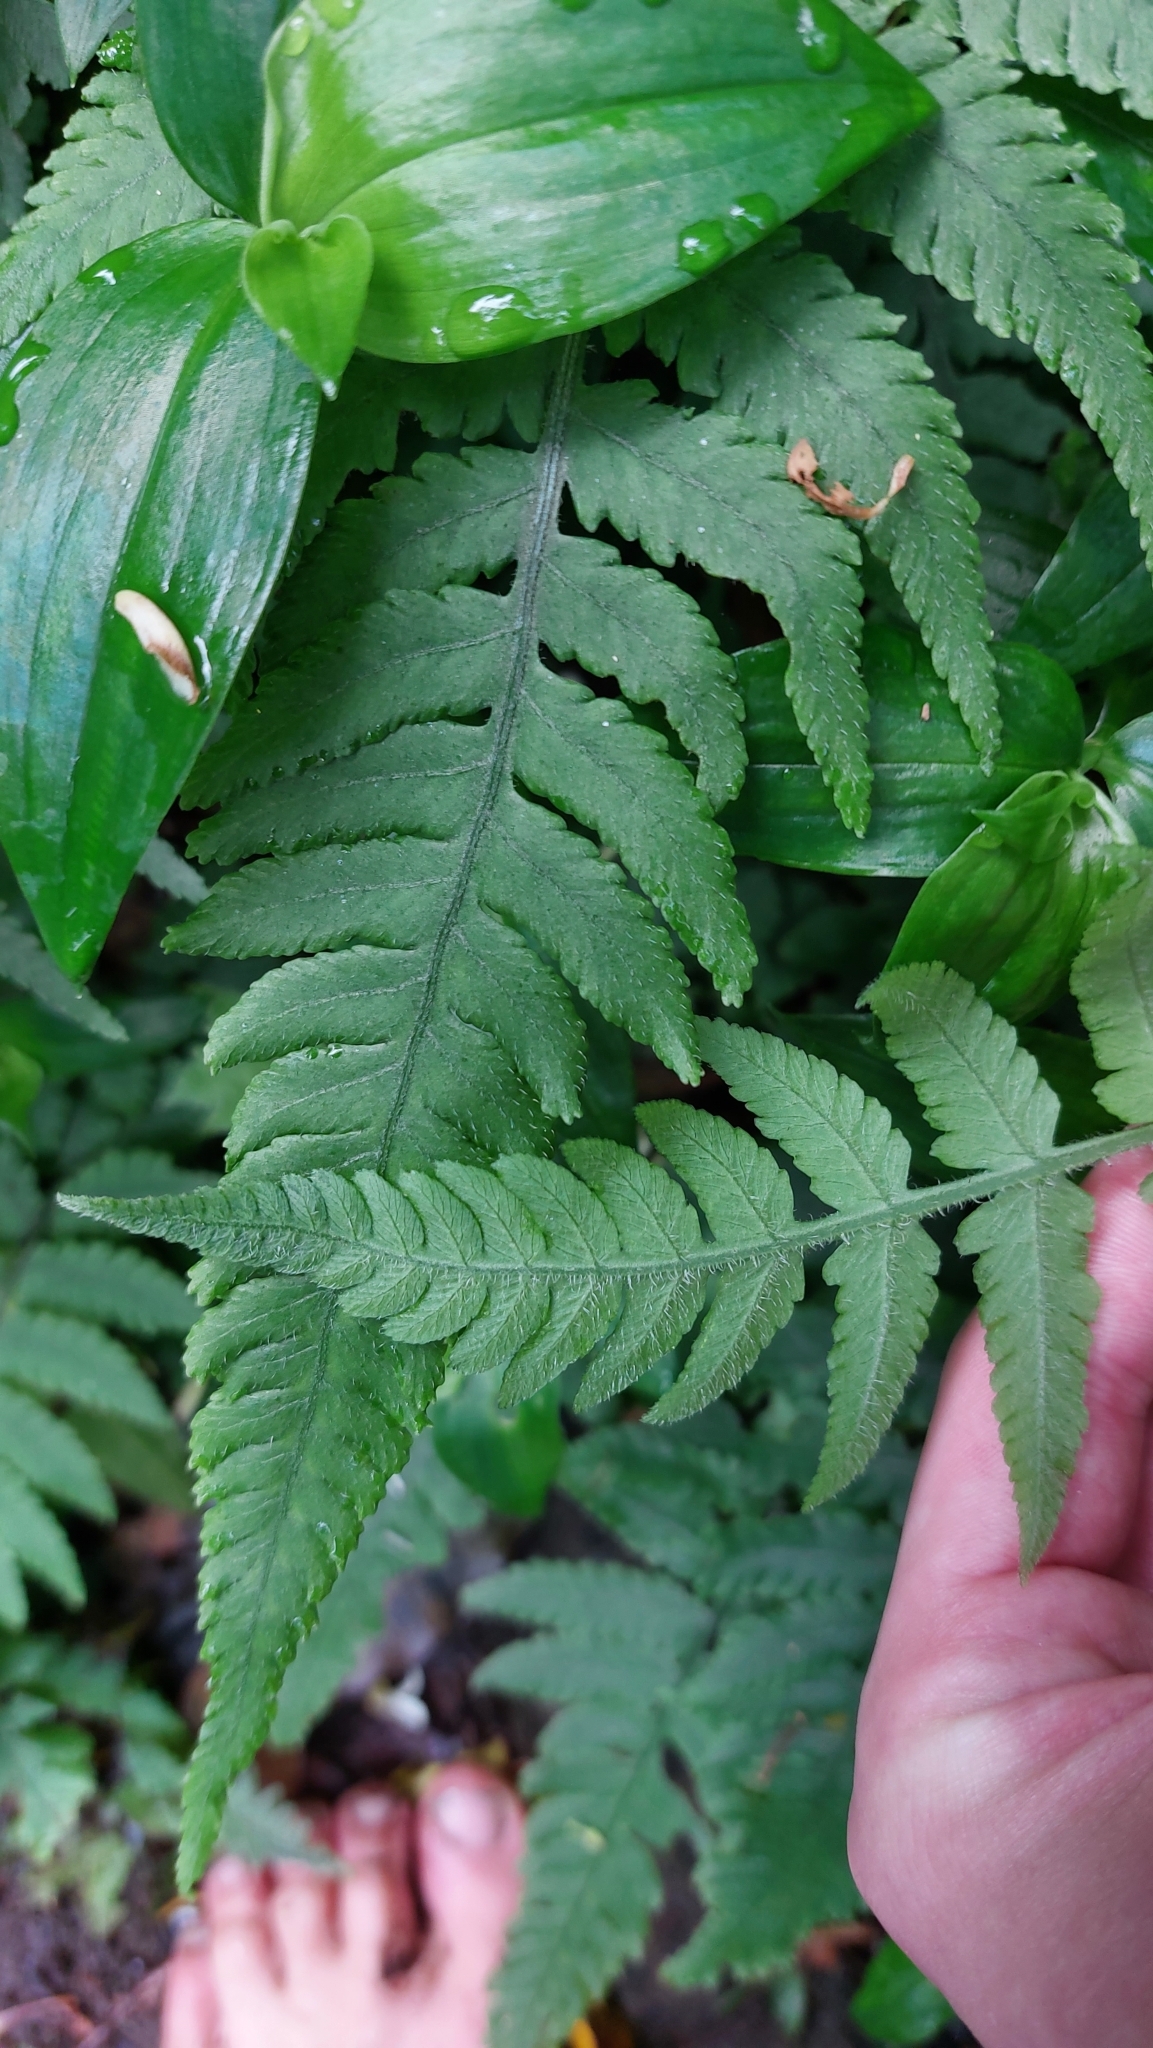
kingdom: Plantae
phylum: Tracheophyta
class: Polypodiopsida
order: Polypodiales
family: Athyriaceae
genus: Deparia
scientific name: Deparia petersenii
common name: Japanese false spleenwort
